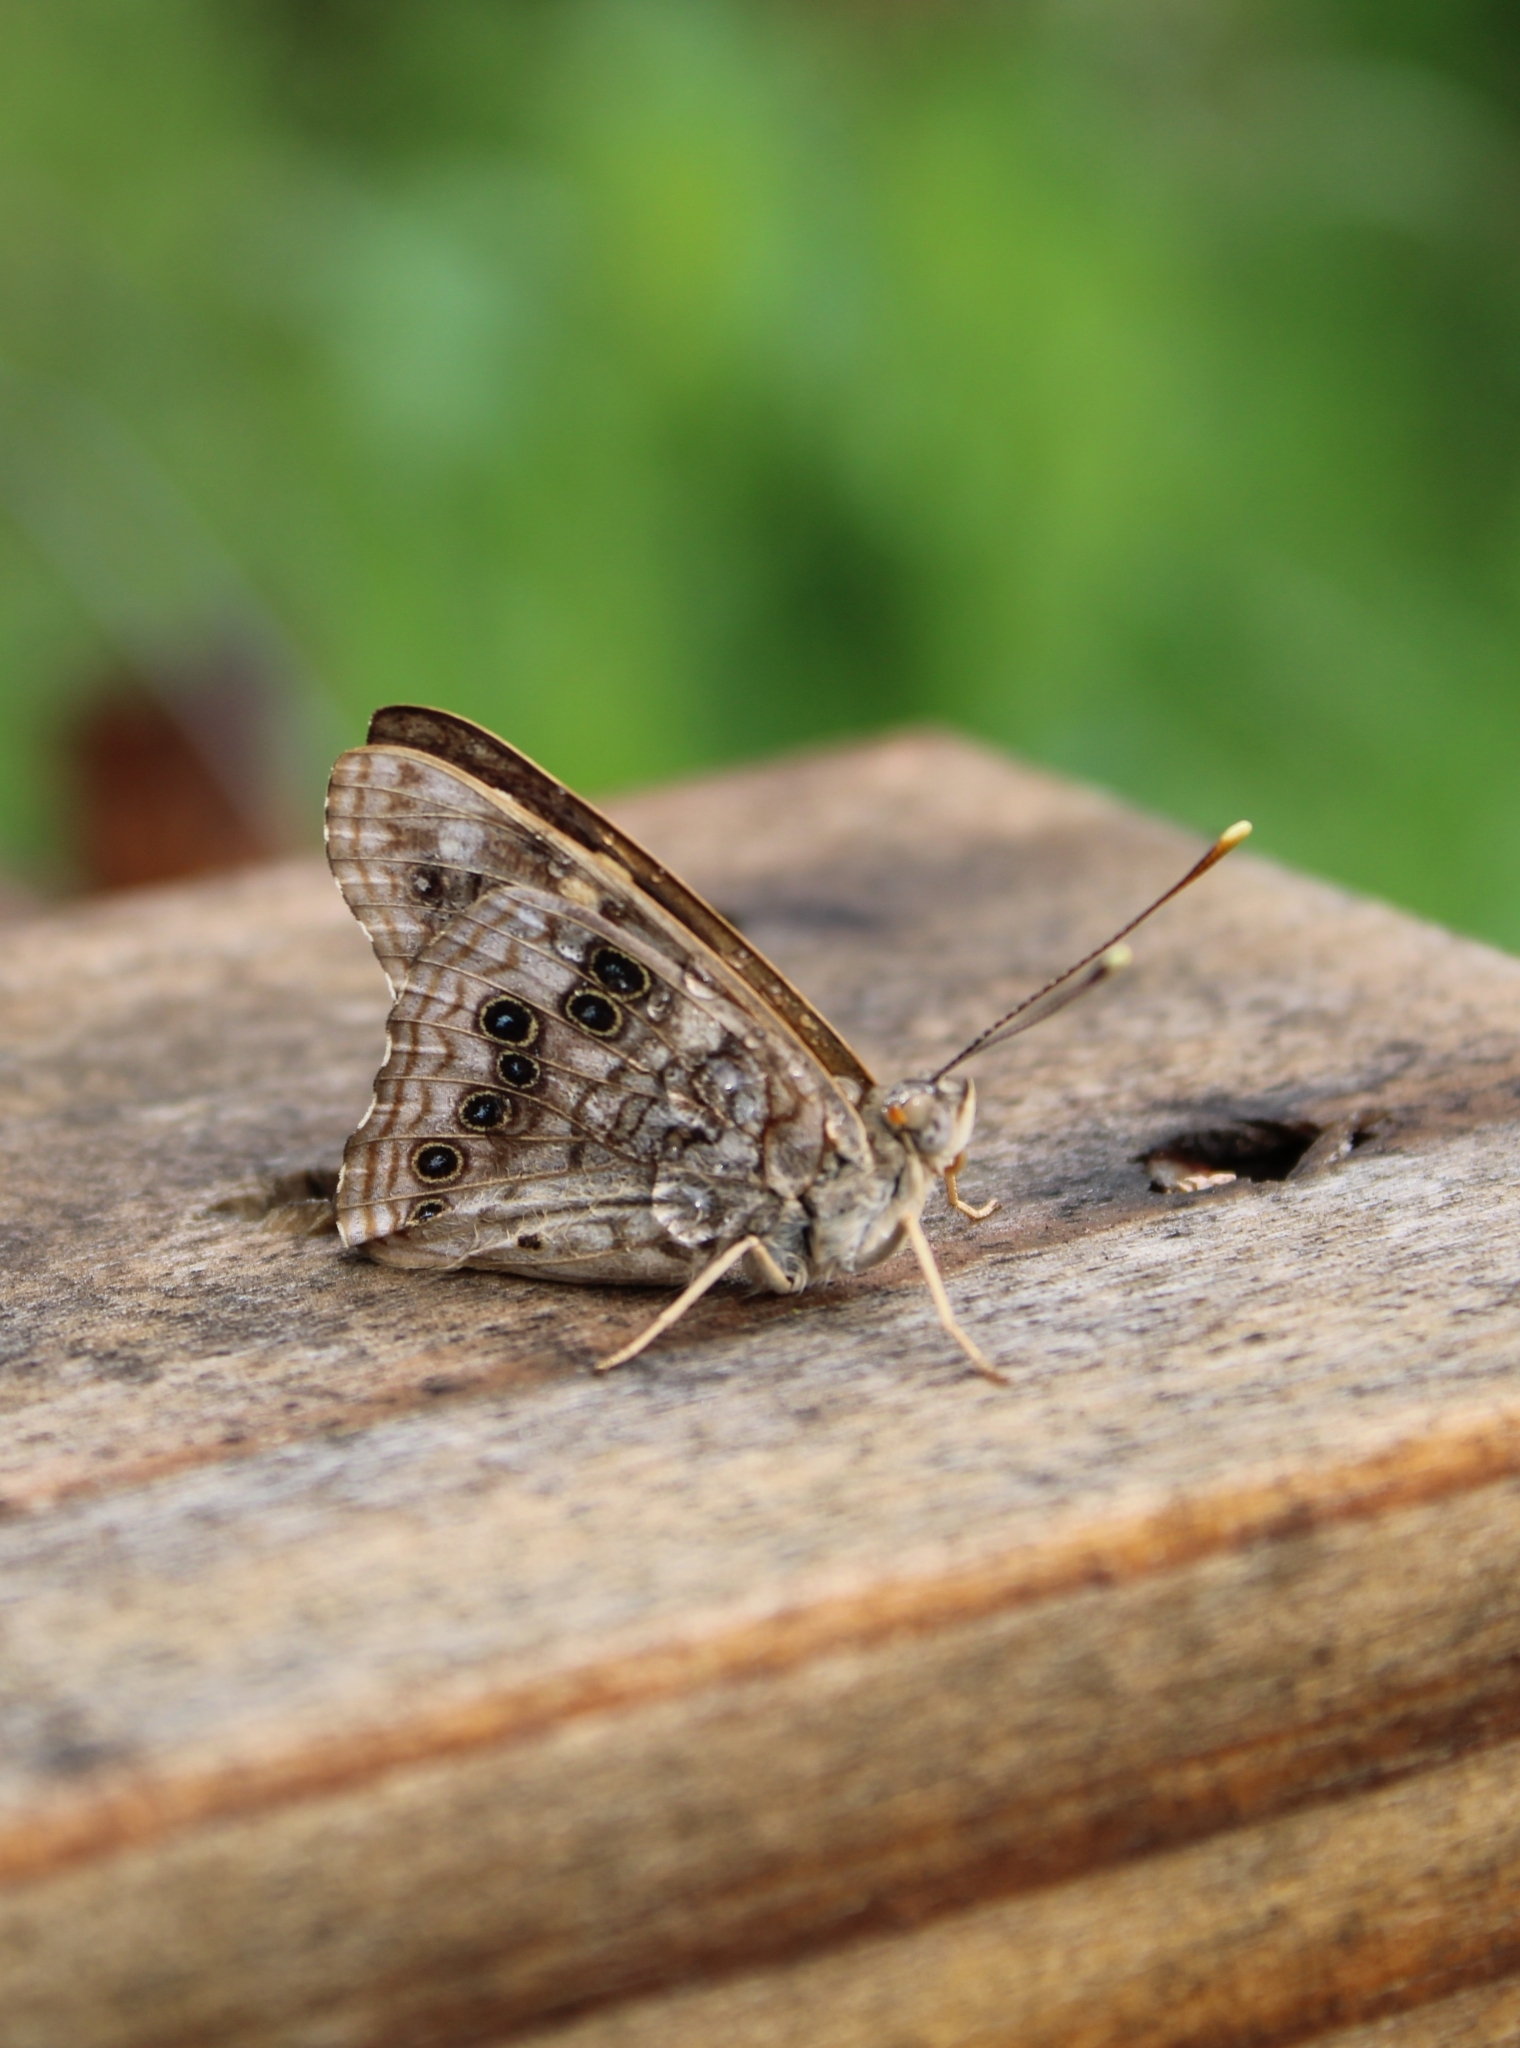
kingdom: Animalia
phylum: Arthropoda
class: Insecta
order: Lepidoptera
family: Nymphalidae
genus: Asterocampa
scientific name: Asterocampa celtis
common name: Hackberry emperor
